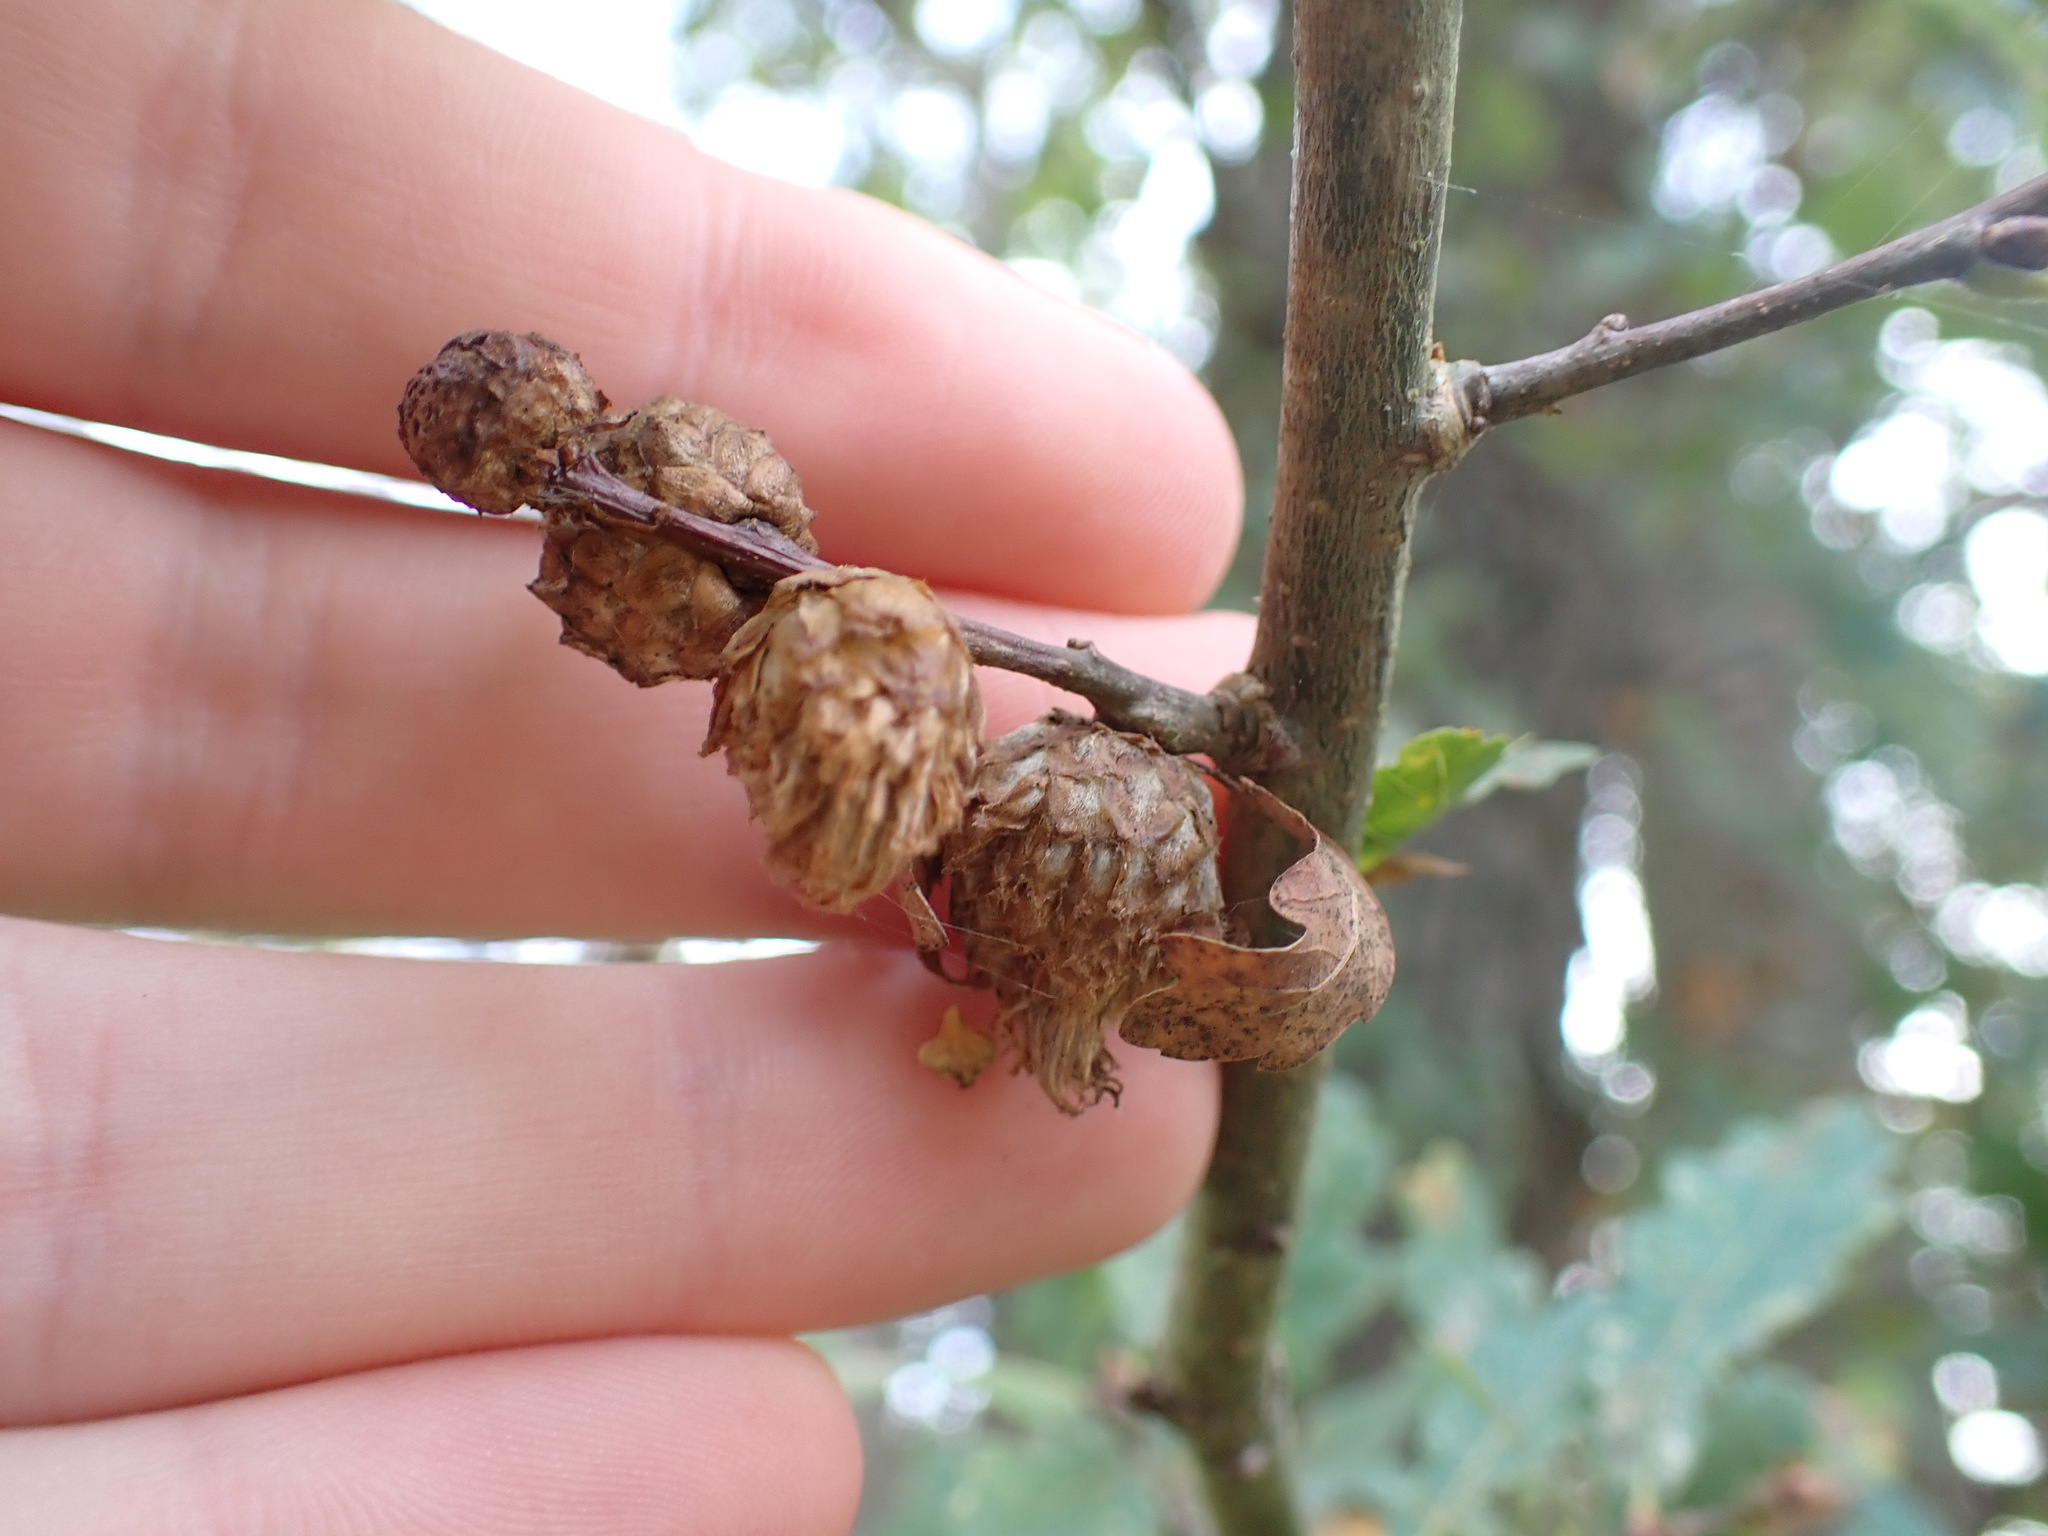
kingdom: Animalia
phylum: Arthropoda
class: Insecta
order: Hymenoptera
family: Cynipidae
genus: Andricus
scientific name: Andricus foecundatrix
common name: Artichoke gall
